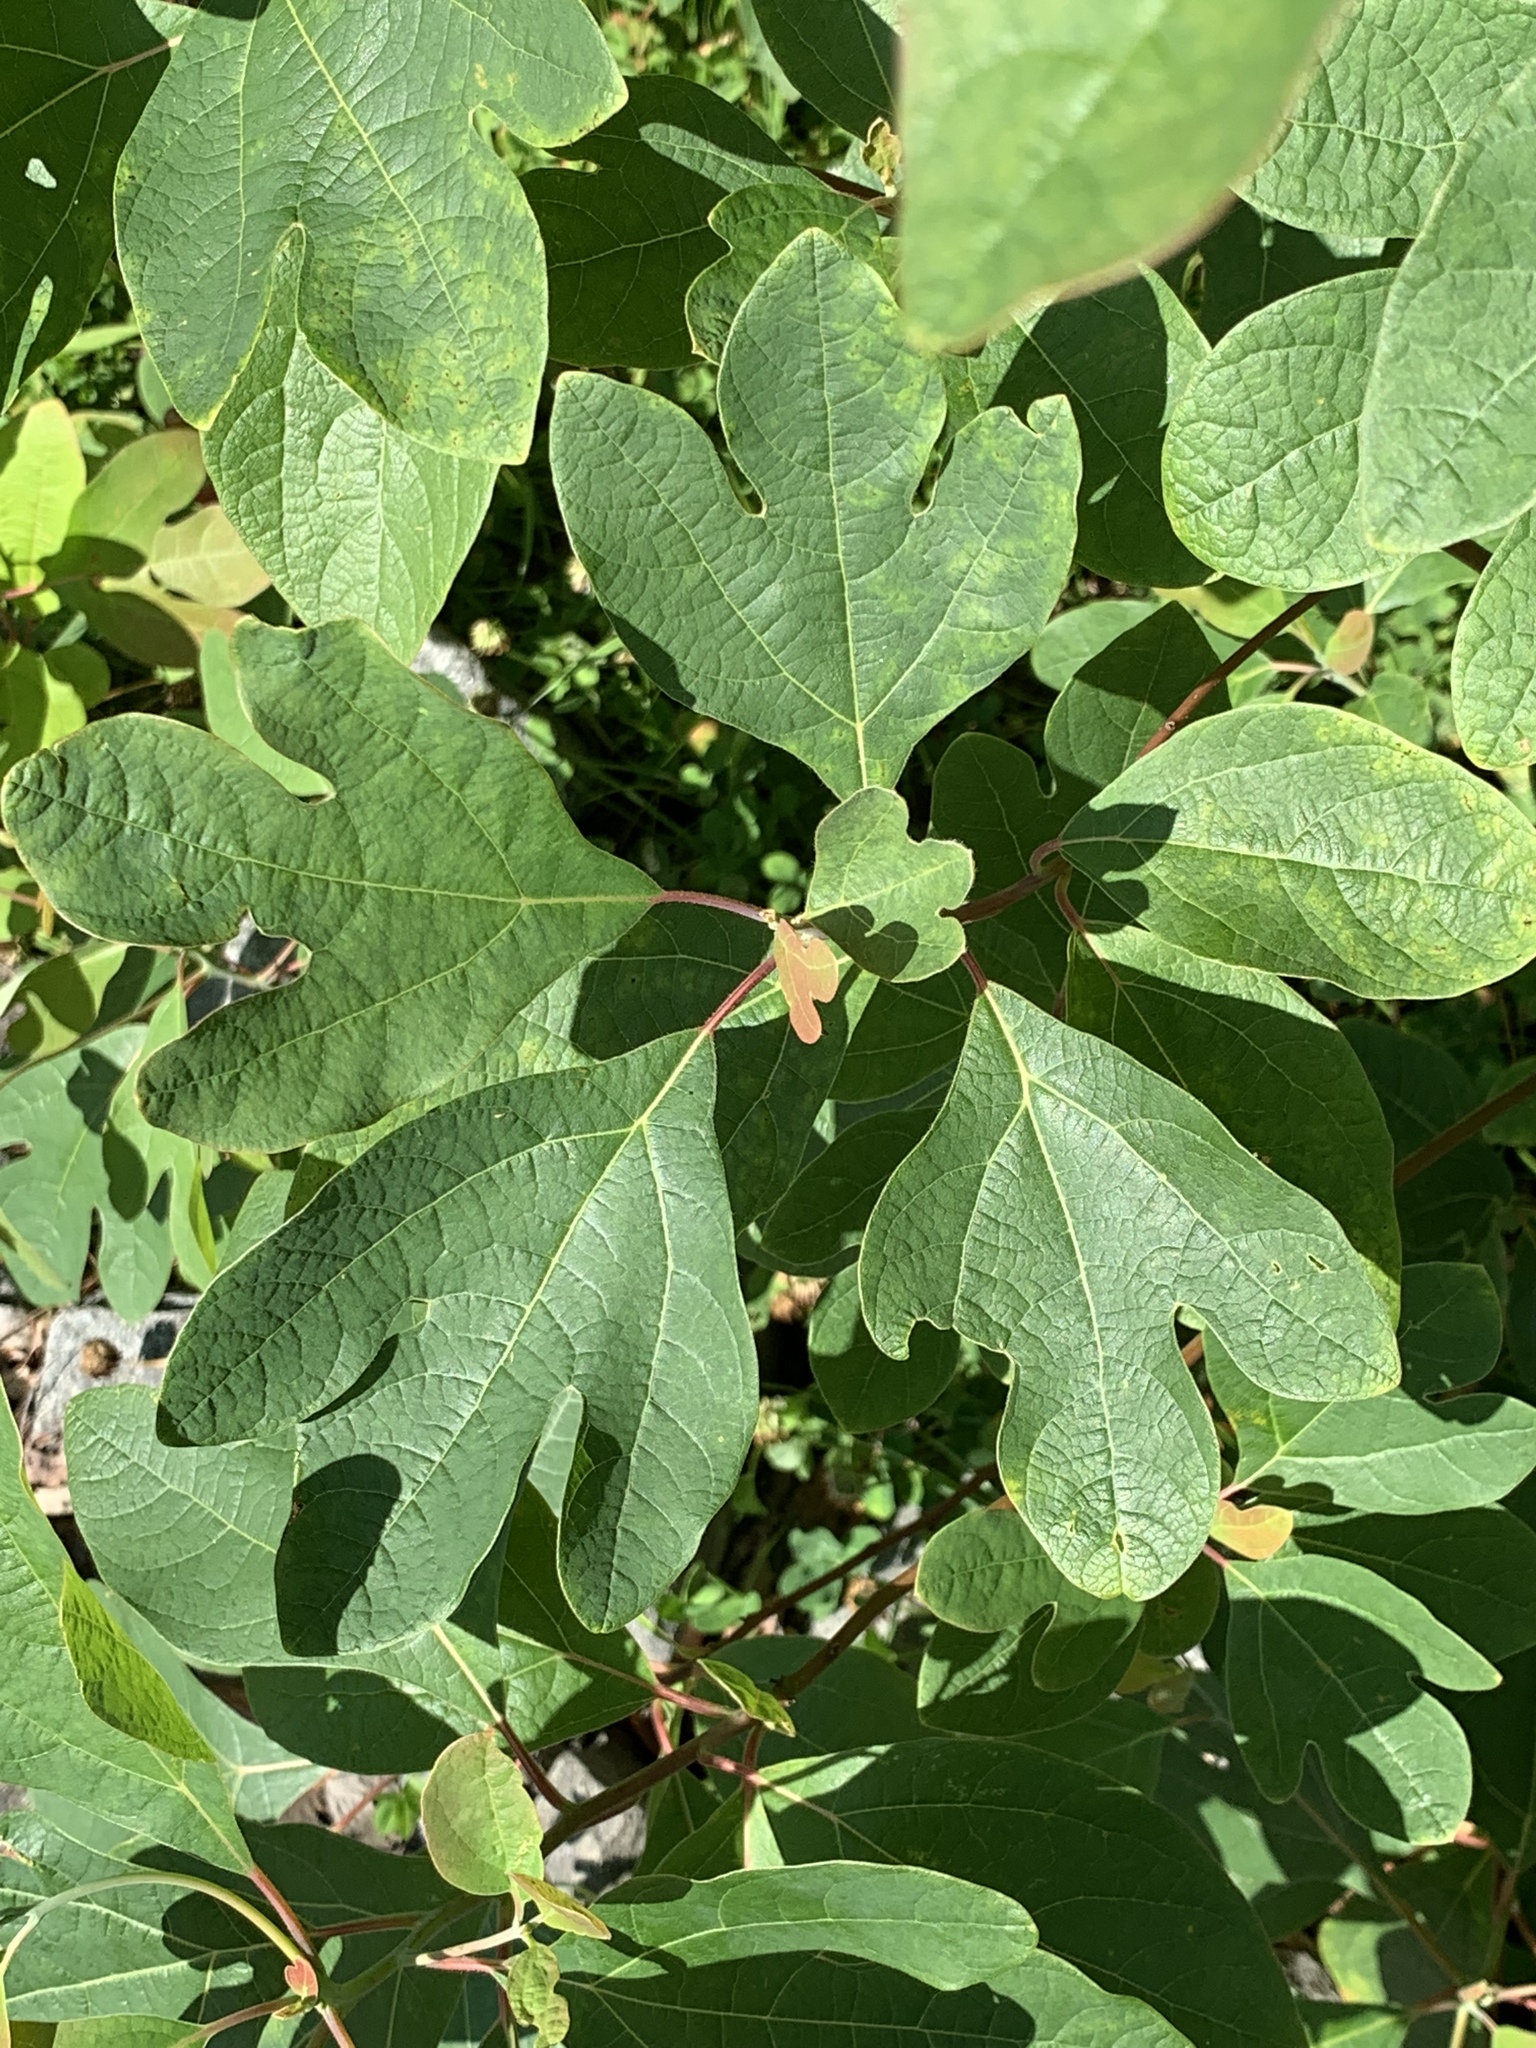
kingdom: Plantae
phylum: Tracheophyta
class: Magnoliopsida
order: Laurales
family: Lauraceae
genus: Sassafras
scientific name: Sassafras albidum
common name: Sassafras
